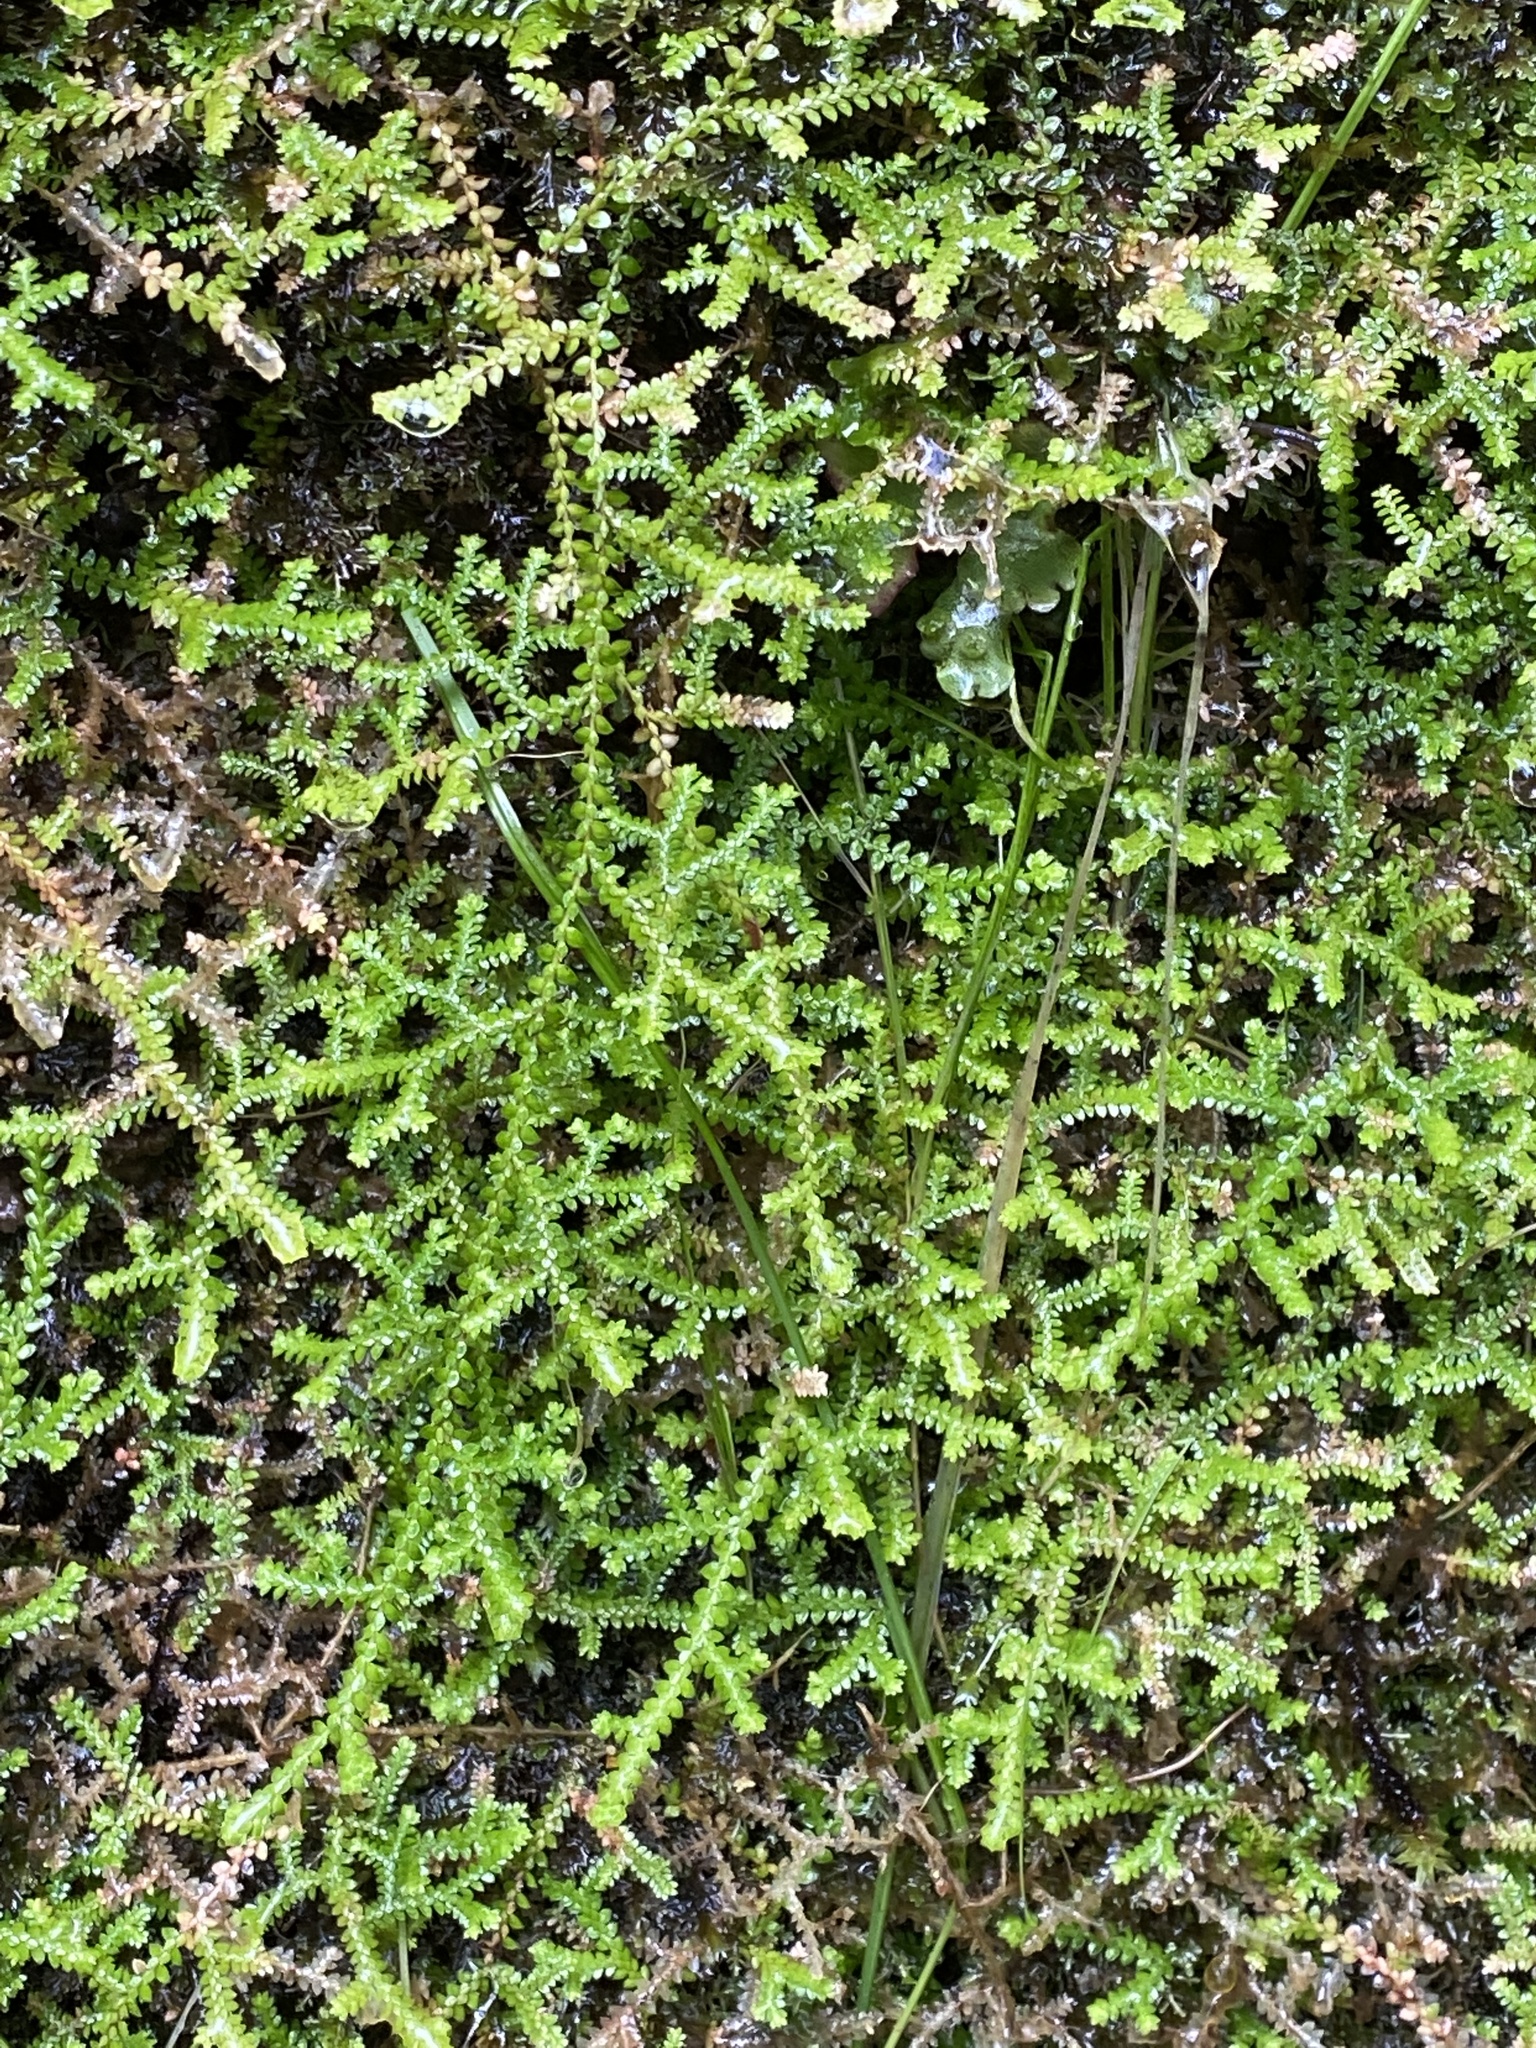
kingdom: Plantae
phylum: Tracheophyta
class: Lycopodiopsida
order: Selaginellales
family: Selaginellaceae
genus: Selaginella
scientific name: Selaginella kraussiana
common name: Krauss' spikemoss
